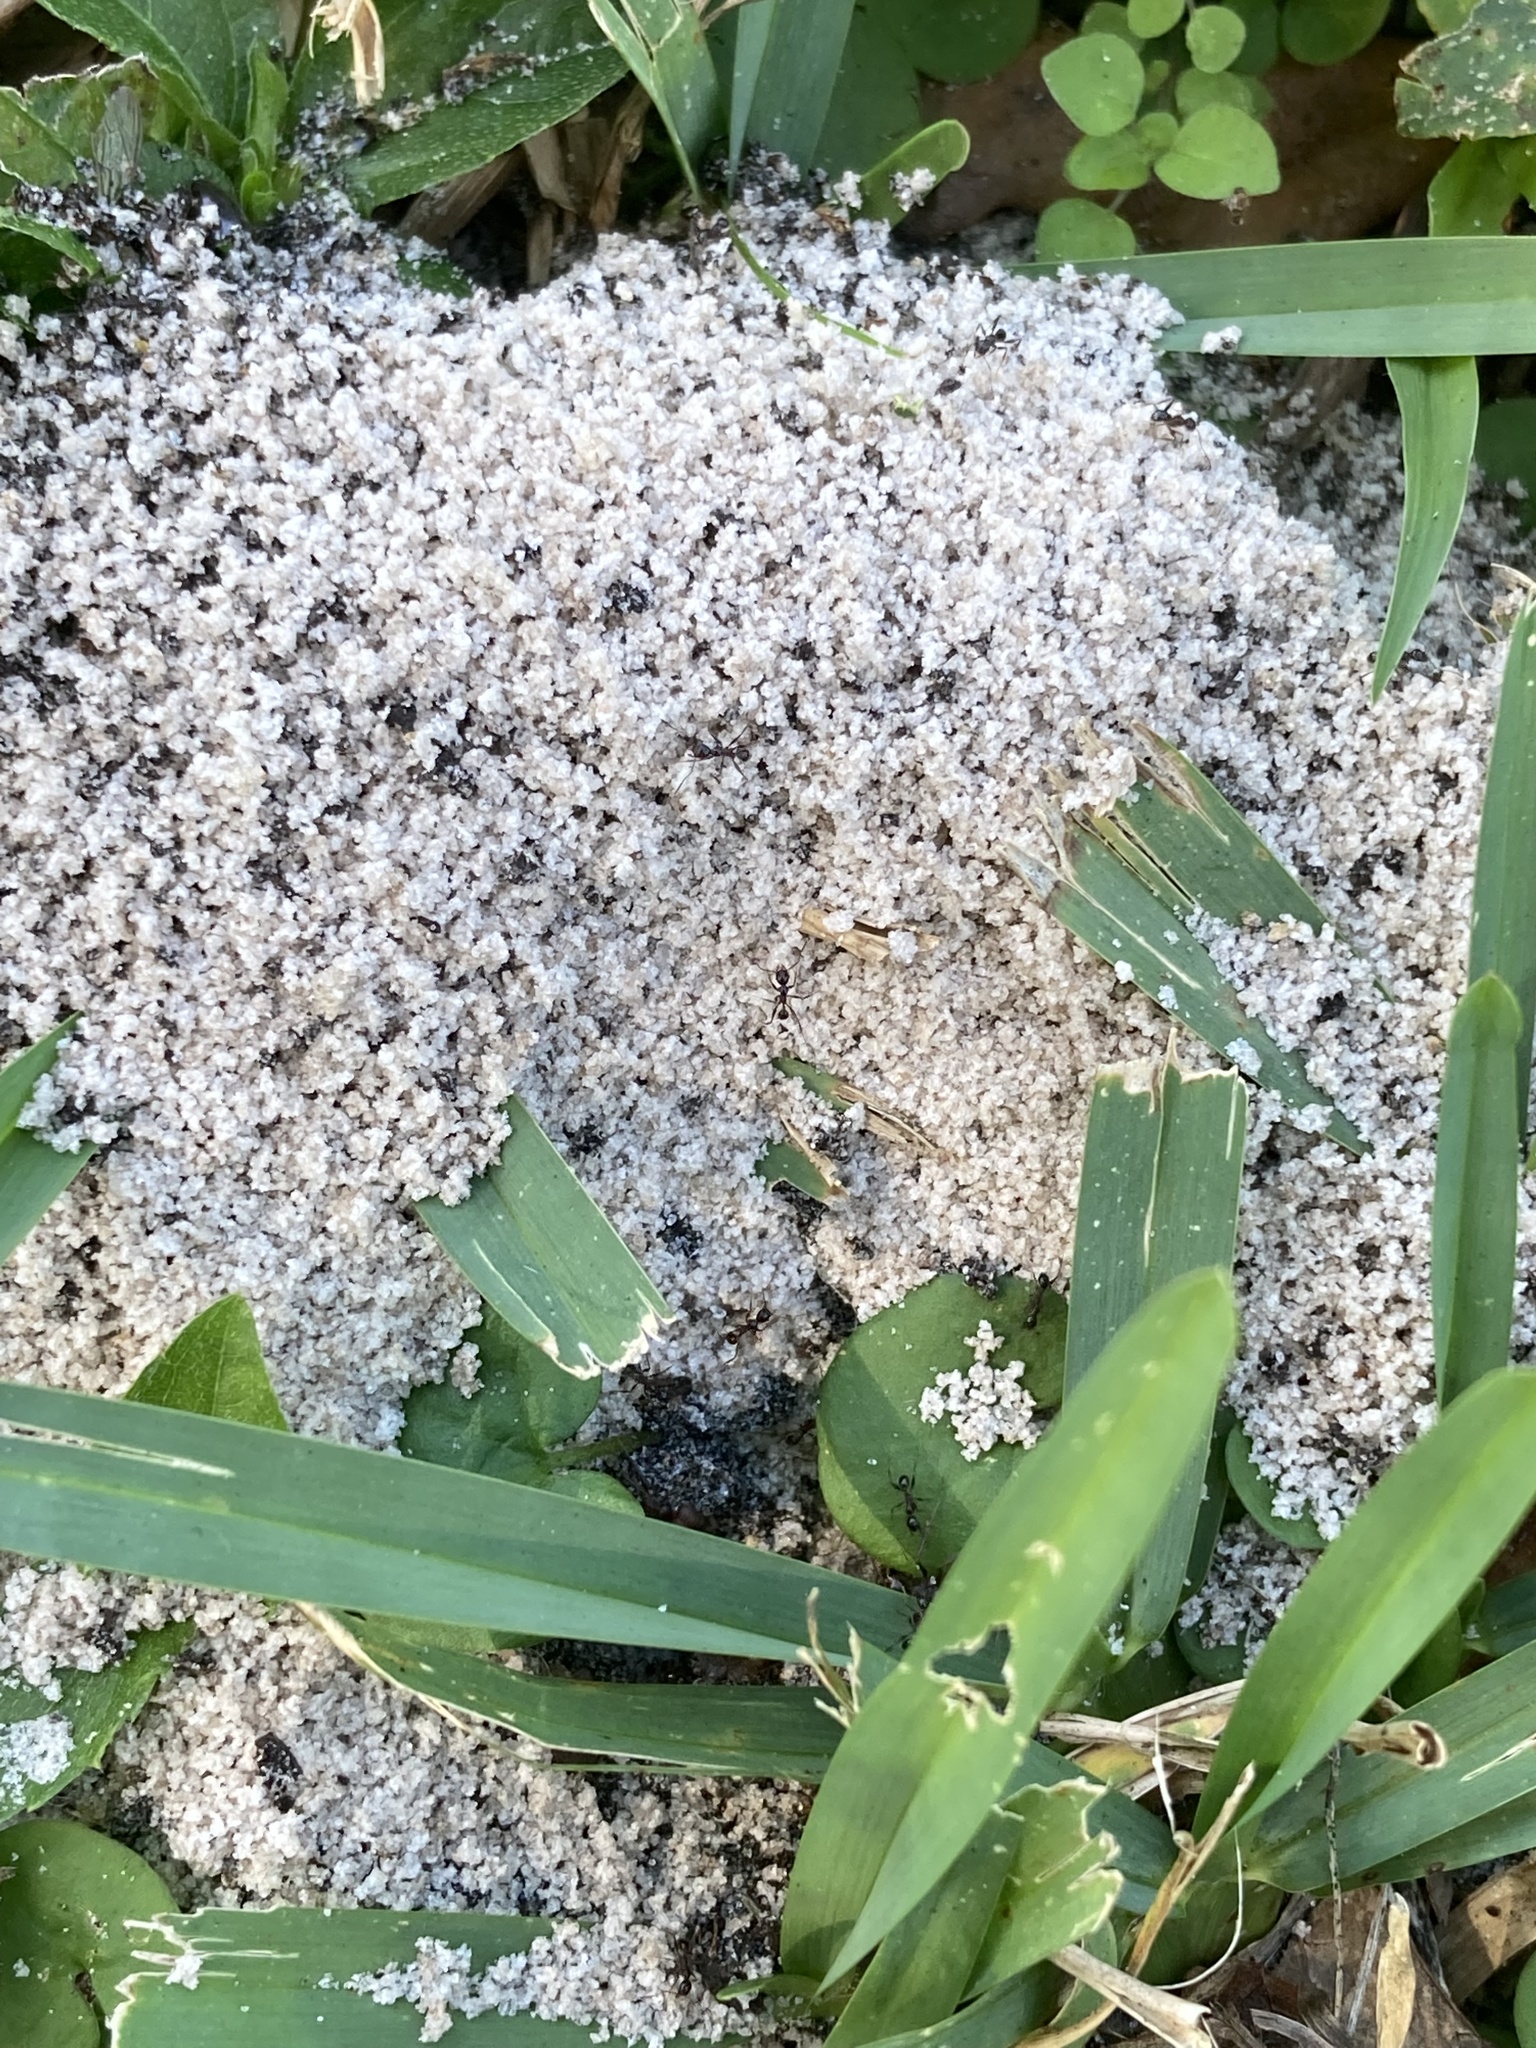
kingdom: Animalia
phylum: Arthropoda
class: Insecta
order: Hymenoptera
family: Formicidae
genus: Pheidole
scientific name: Pheidole obscurithorax
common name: Obscure big-headed ant
